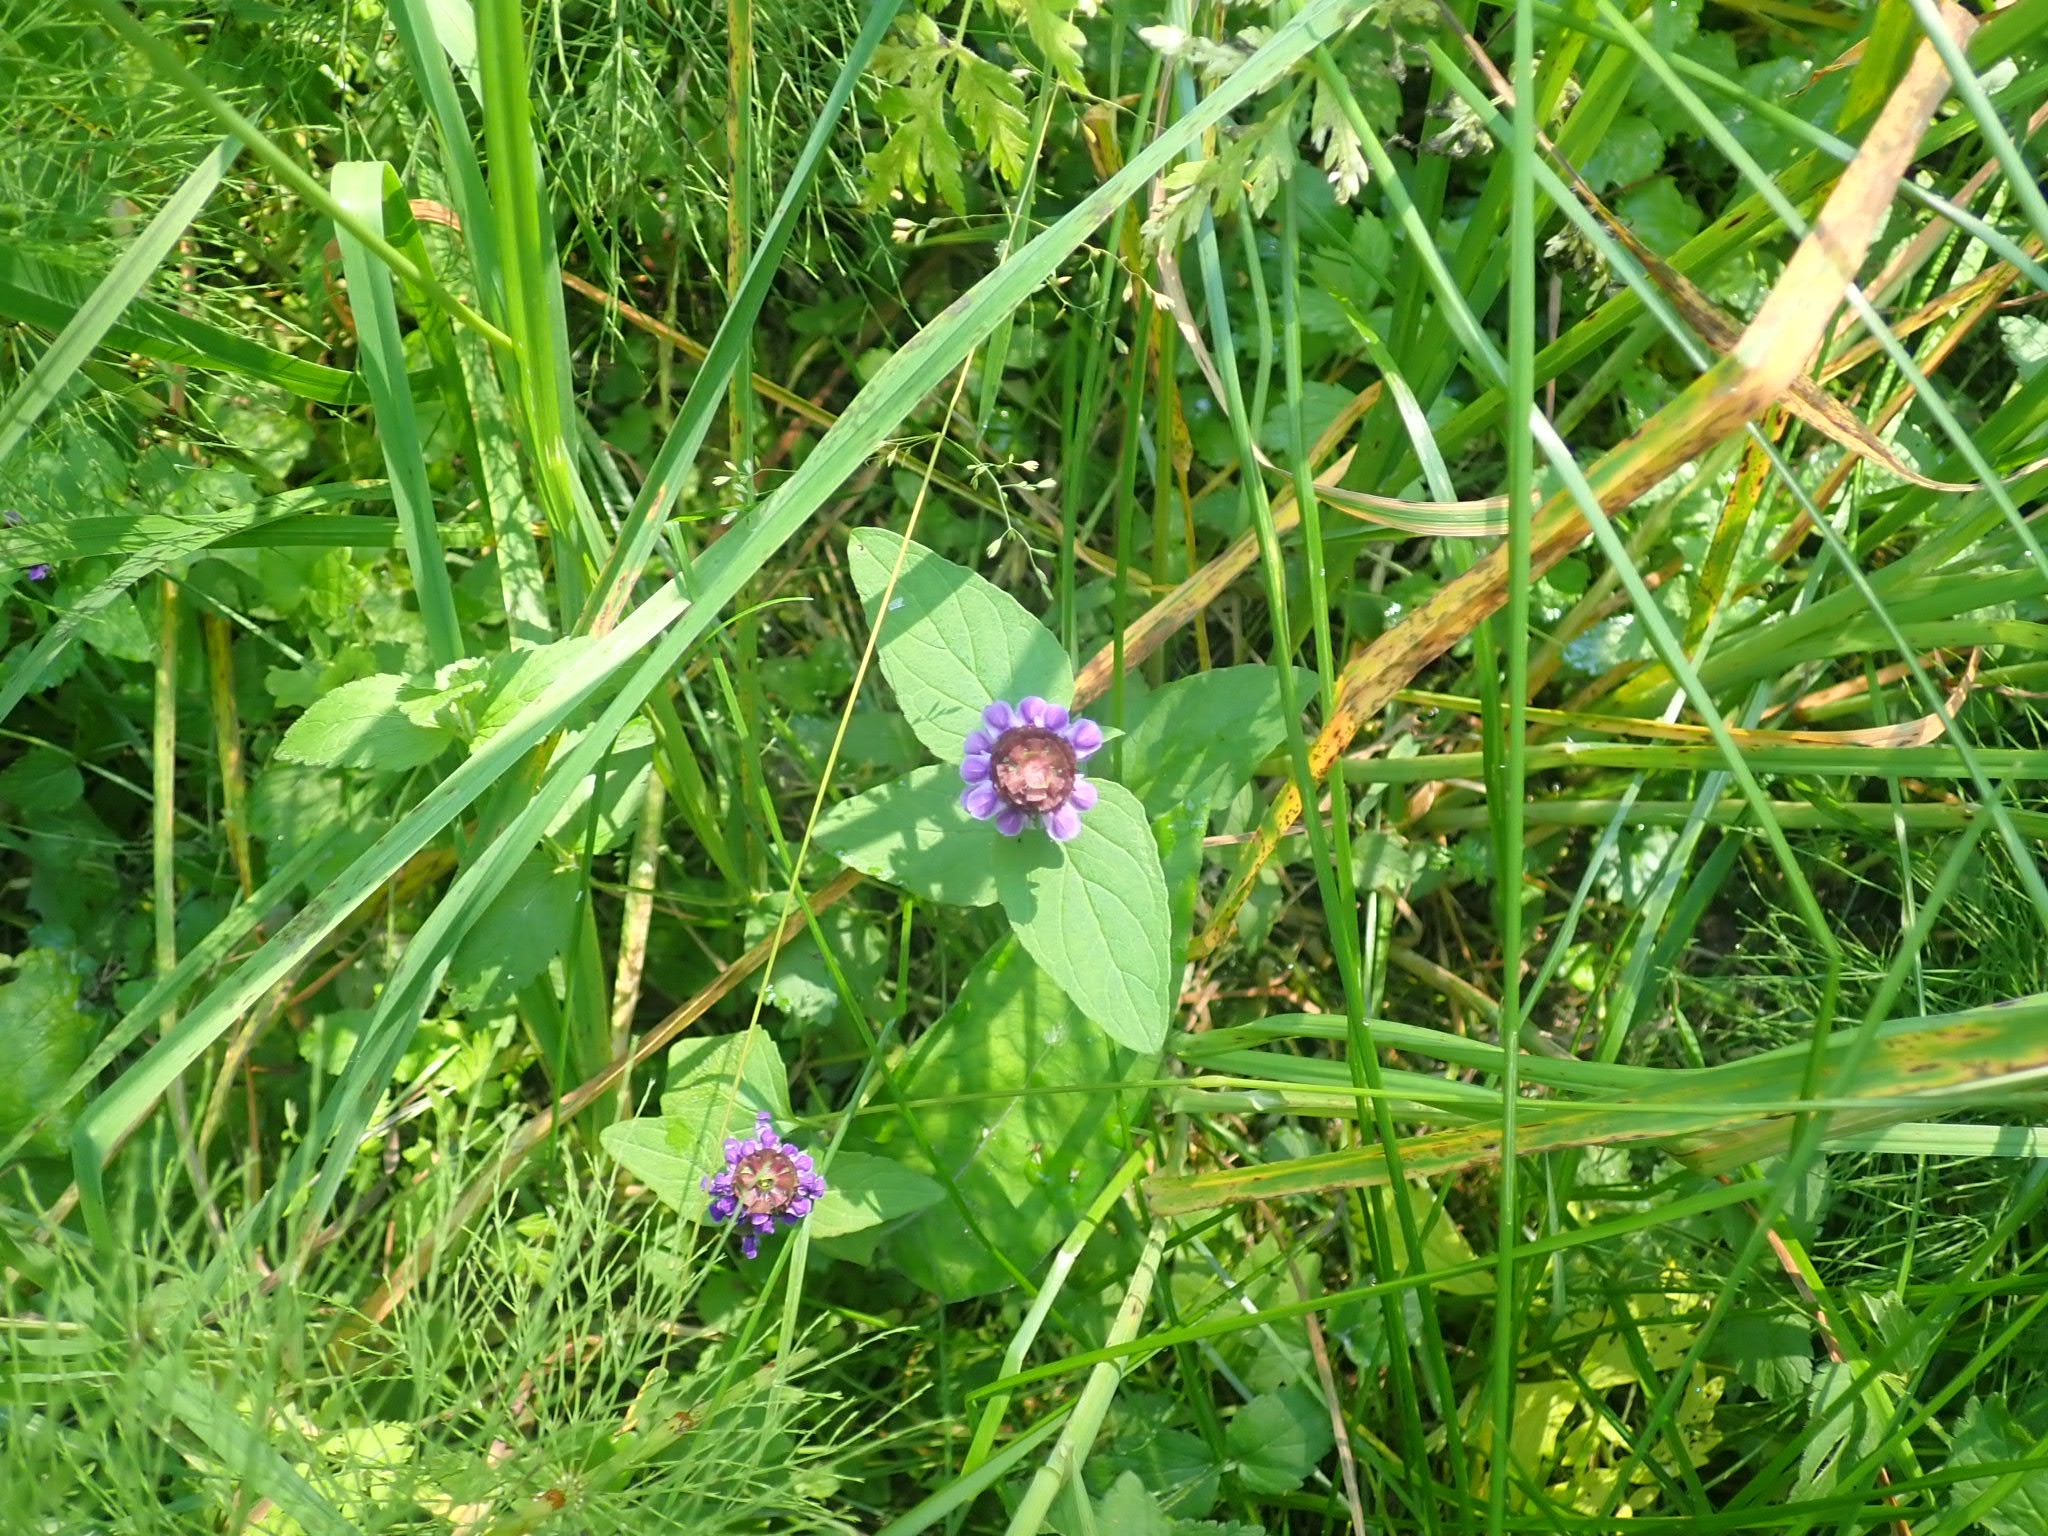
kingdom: Plantae
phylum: Tracheophyta
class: Magnoliopsida
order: Lamiales
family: Lamiaceae
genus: Prunella
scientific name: Prunella vulgaris
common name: Heal-all
